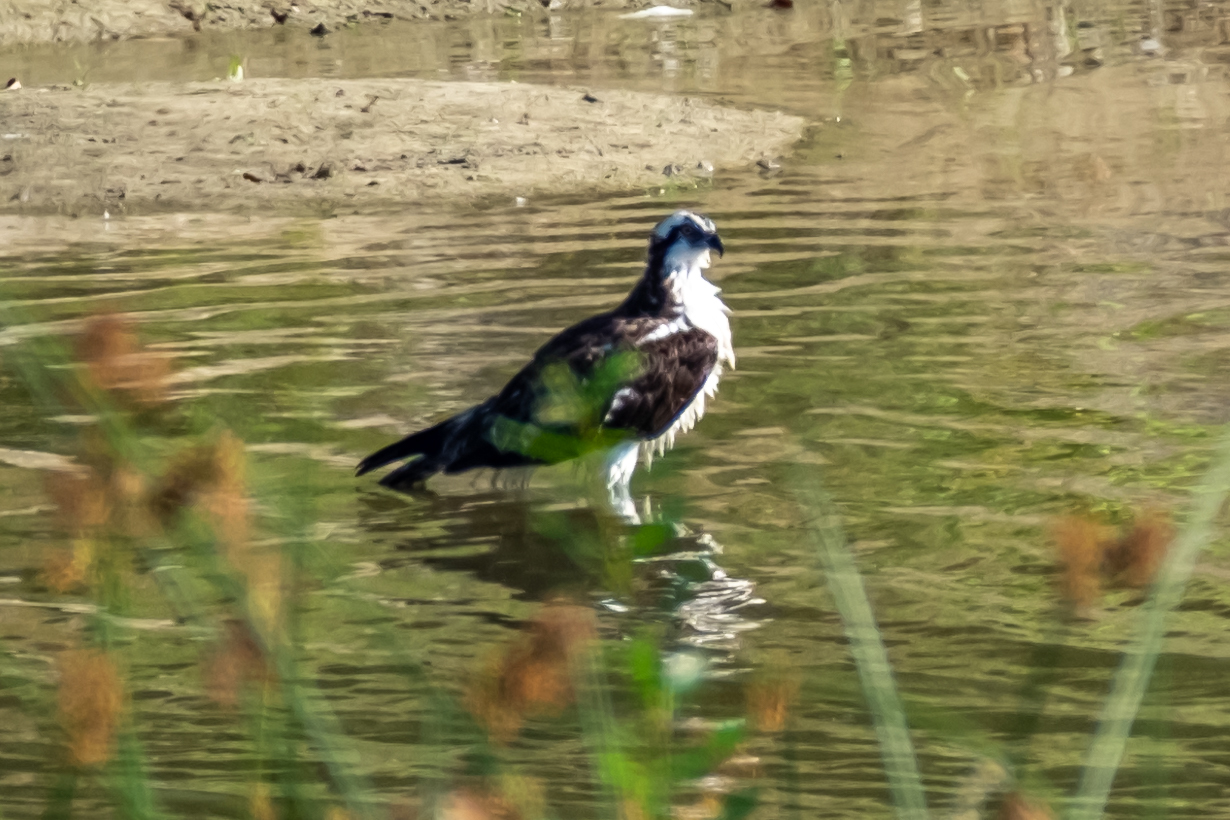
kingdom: Animalia
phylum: Chordata
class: Aves
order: Accipitriformes
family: Pandionidae
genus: Pandion
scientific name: Pandion haliaetus
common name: Osprey
